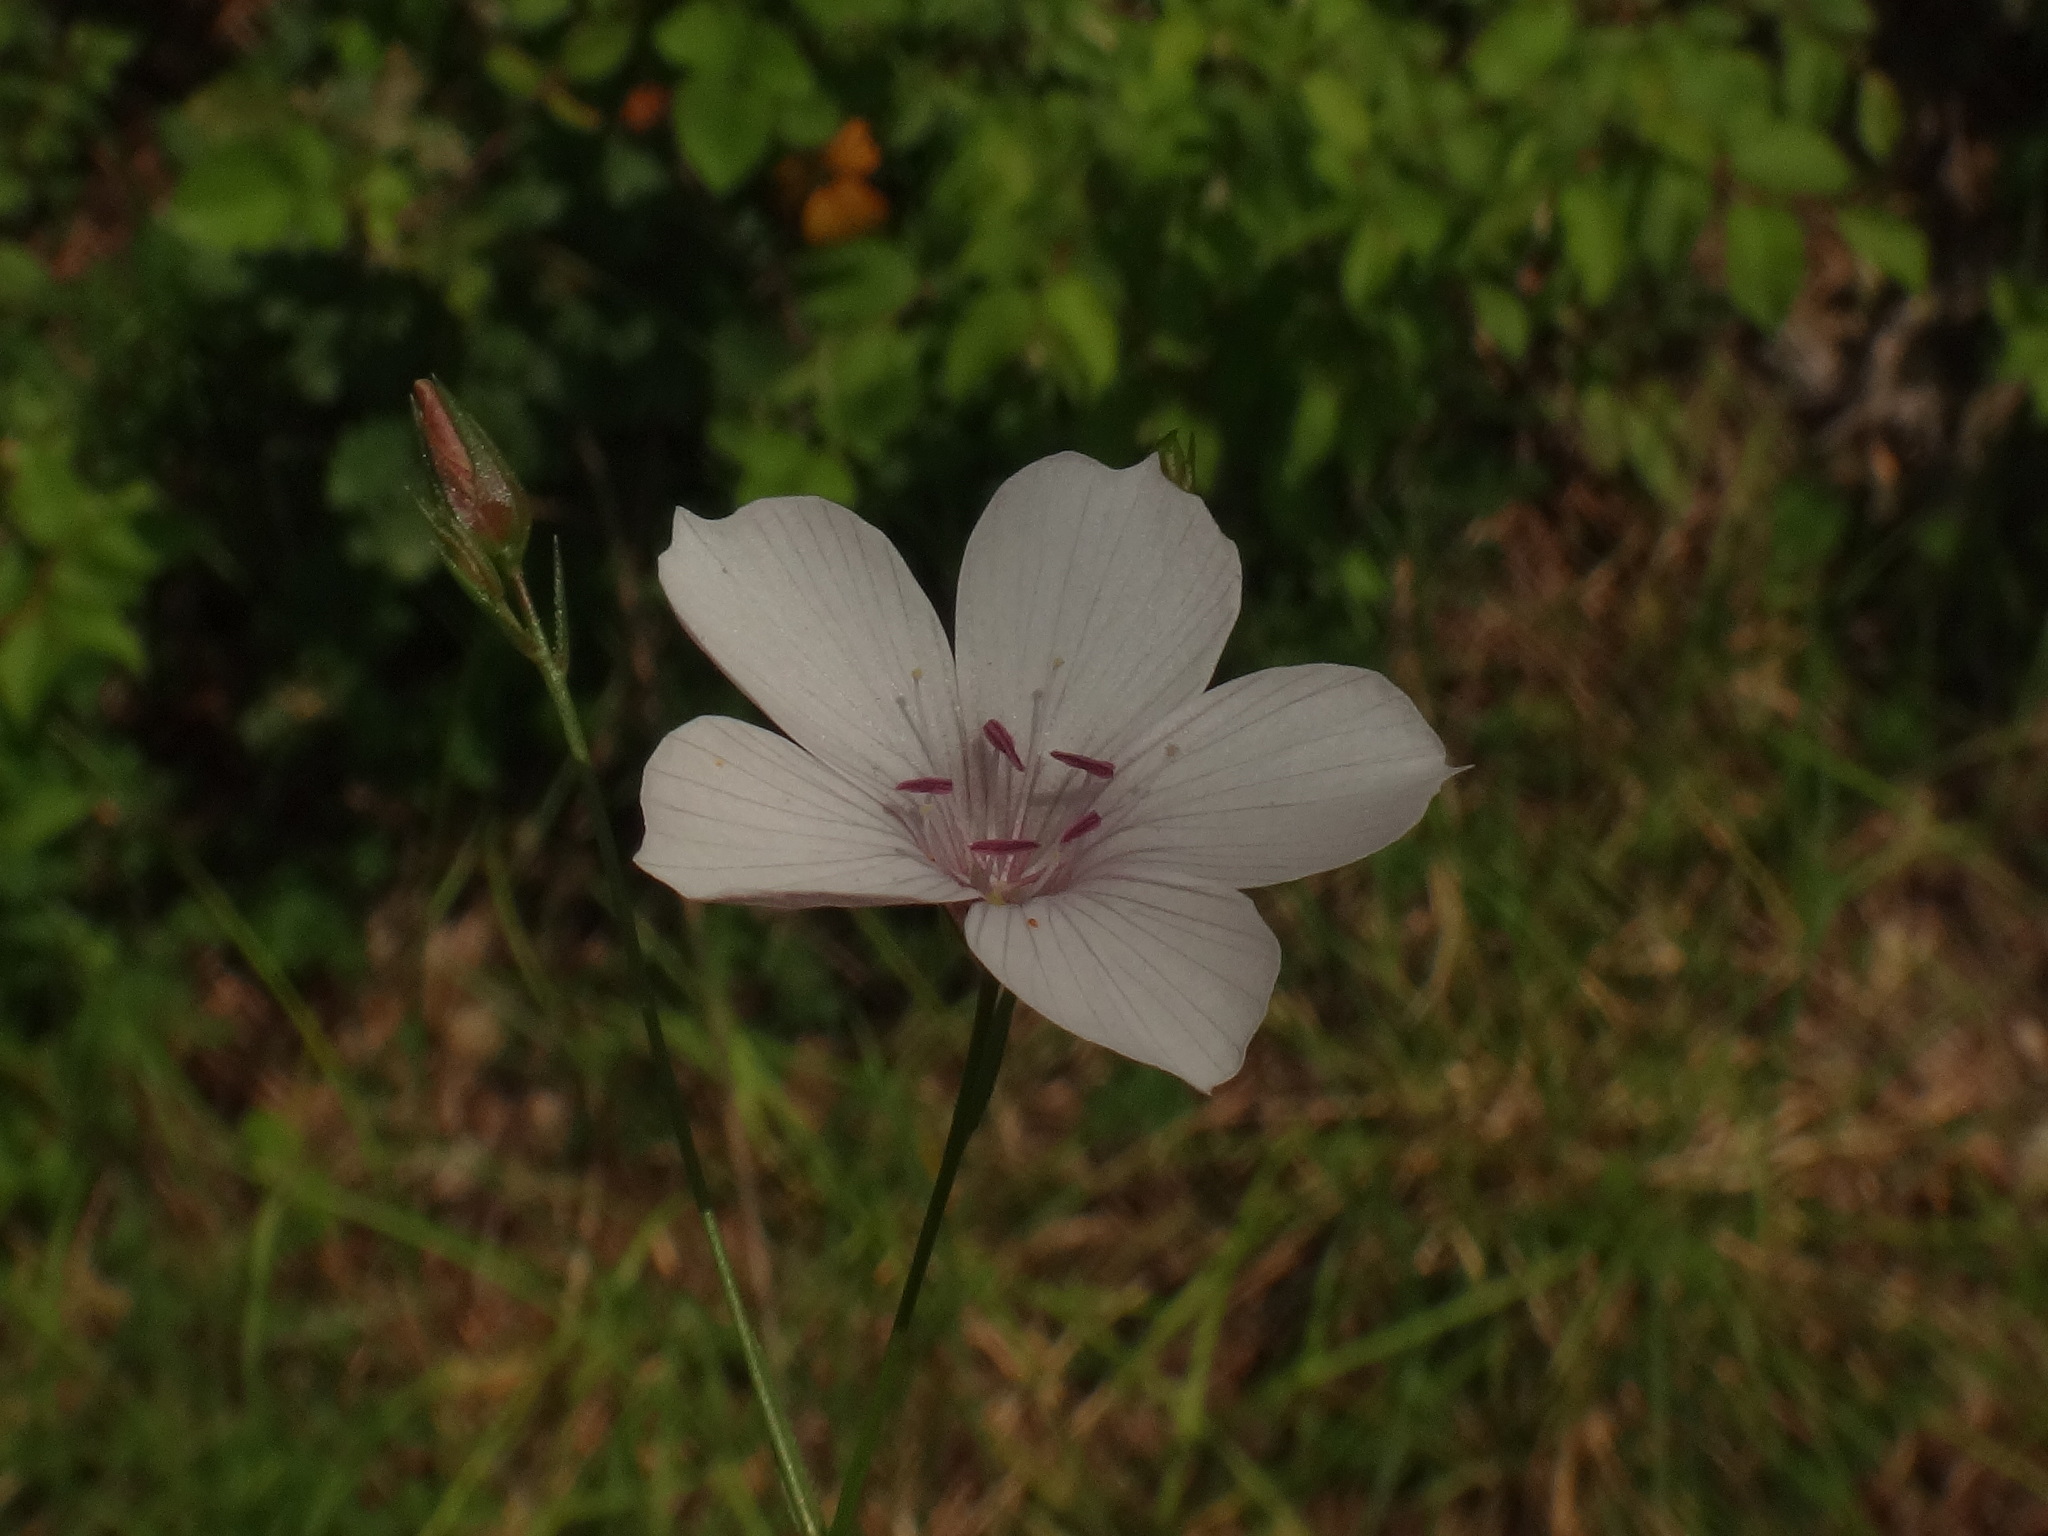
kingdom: Plantae
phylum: Tracheophyta
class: Magnoliopsida
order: Malpighiales
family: Linaceae
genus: Linum
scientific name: Linum tenuifolium
